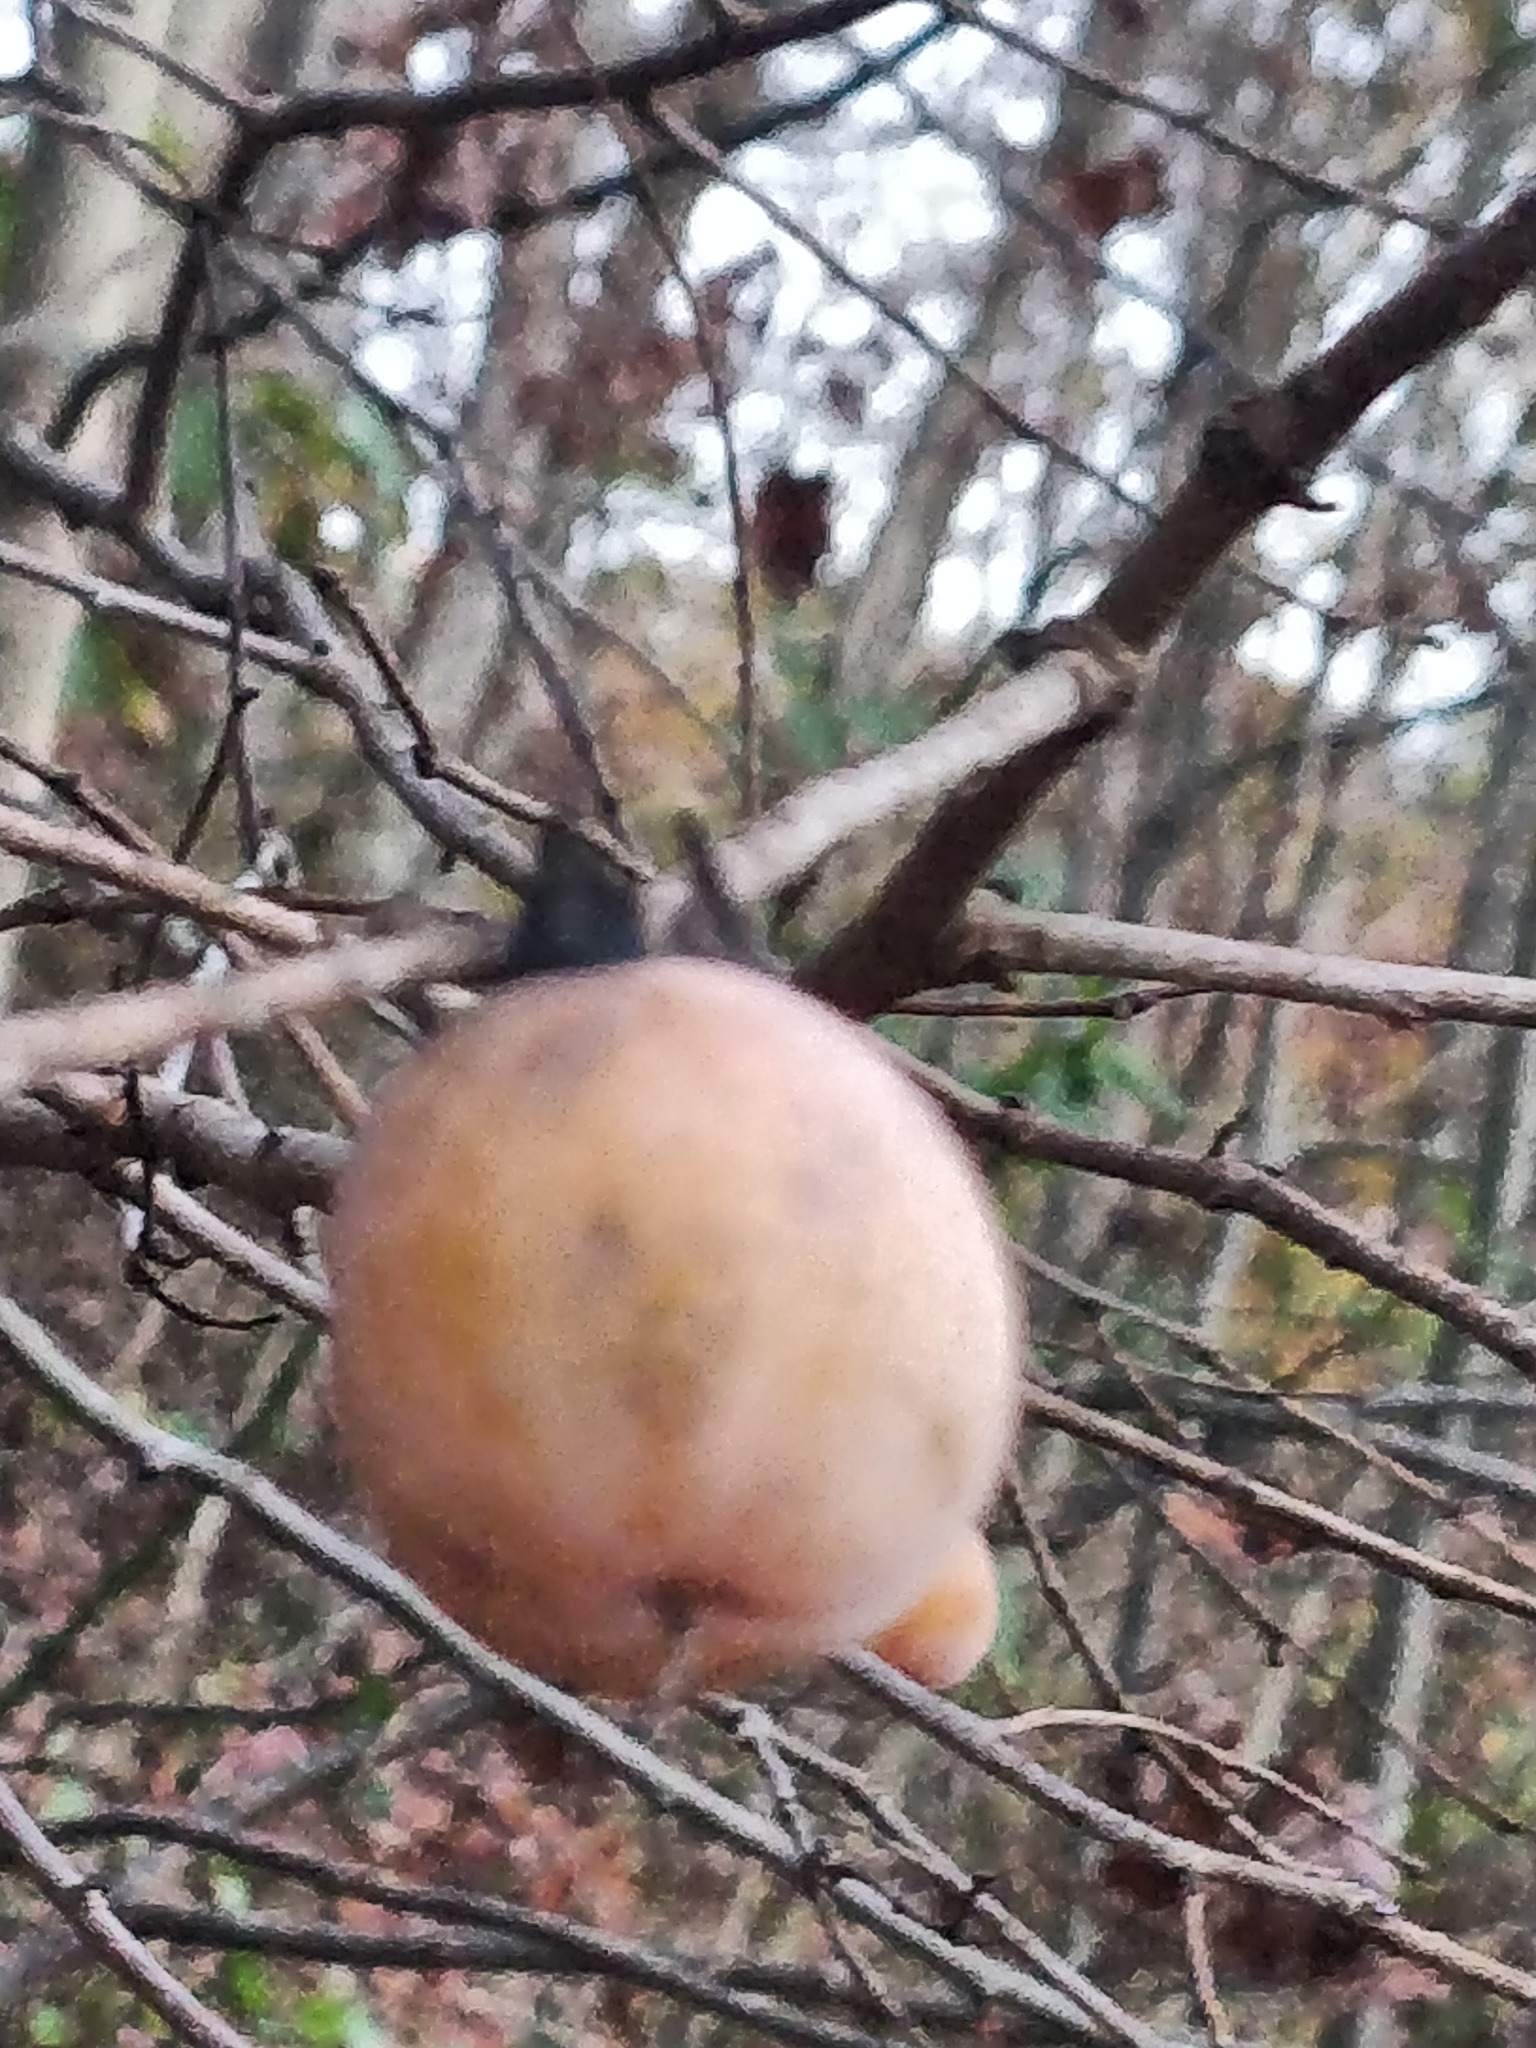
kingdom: Plantae
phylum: Tracheophyta
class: Magnoliopsida
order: Ericales
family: Ebenaceae
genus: Diospyros
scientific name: Diospyros virginiana
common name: Persimmon
